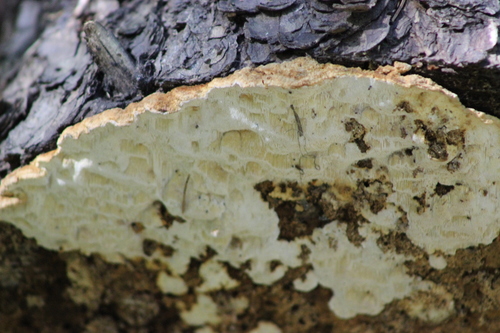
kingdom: Fungi
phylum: Basidiomycota
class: Agaricomycetes
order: Polyporales
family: Fomitopsidaceae
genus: Neoantrodia
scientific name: Neoantrodia serialis
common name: Serried porecrust
